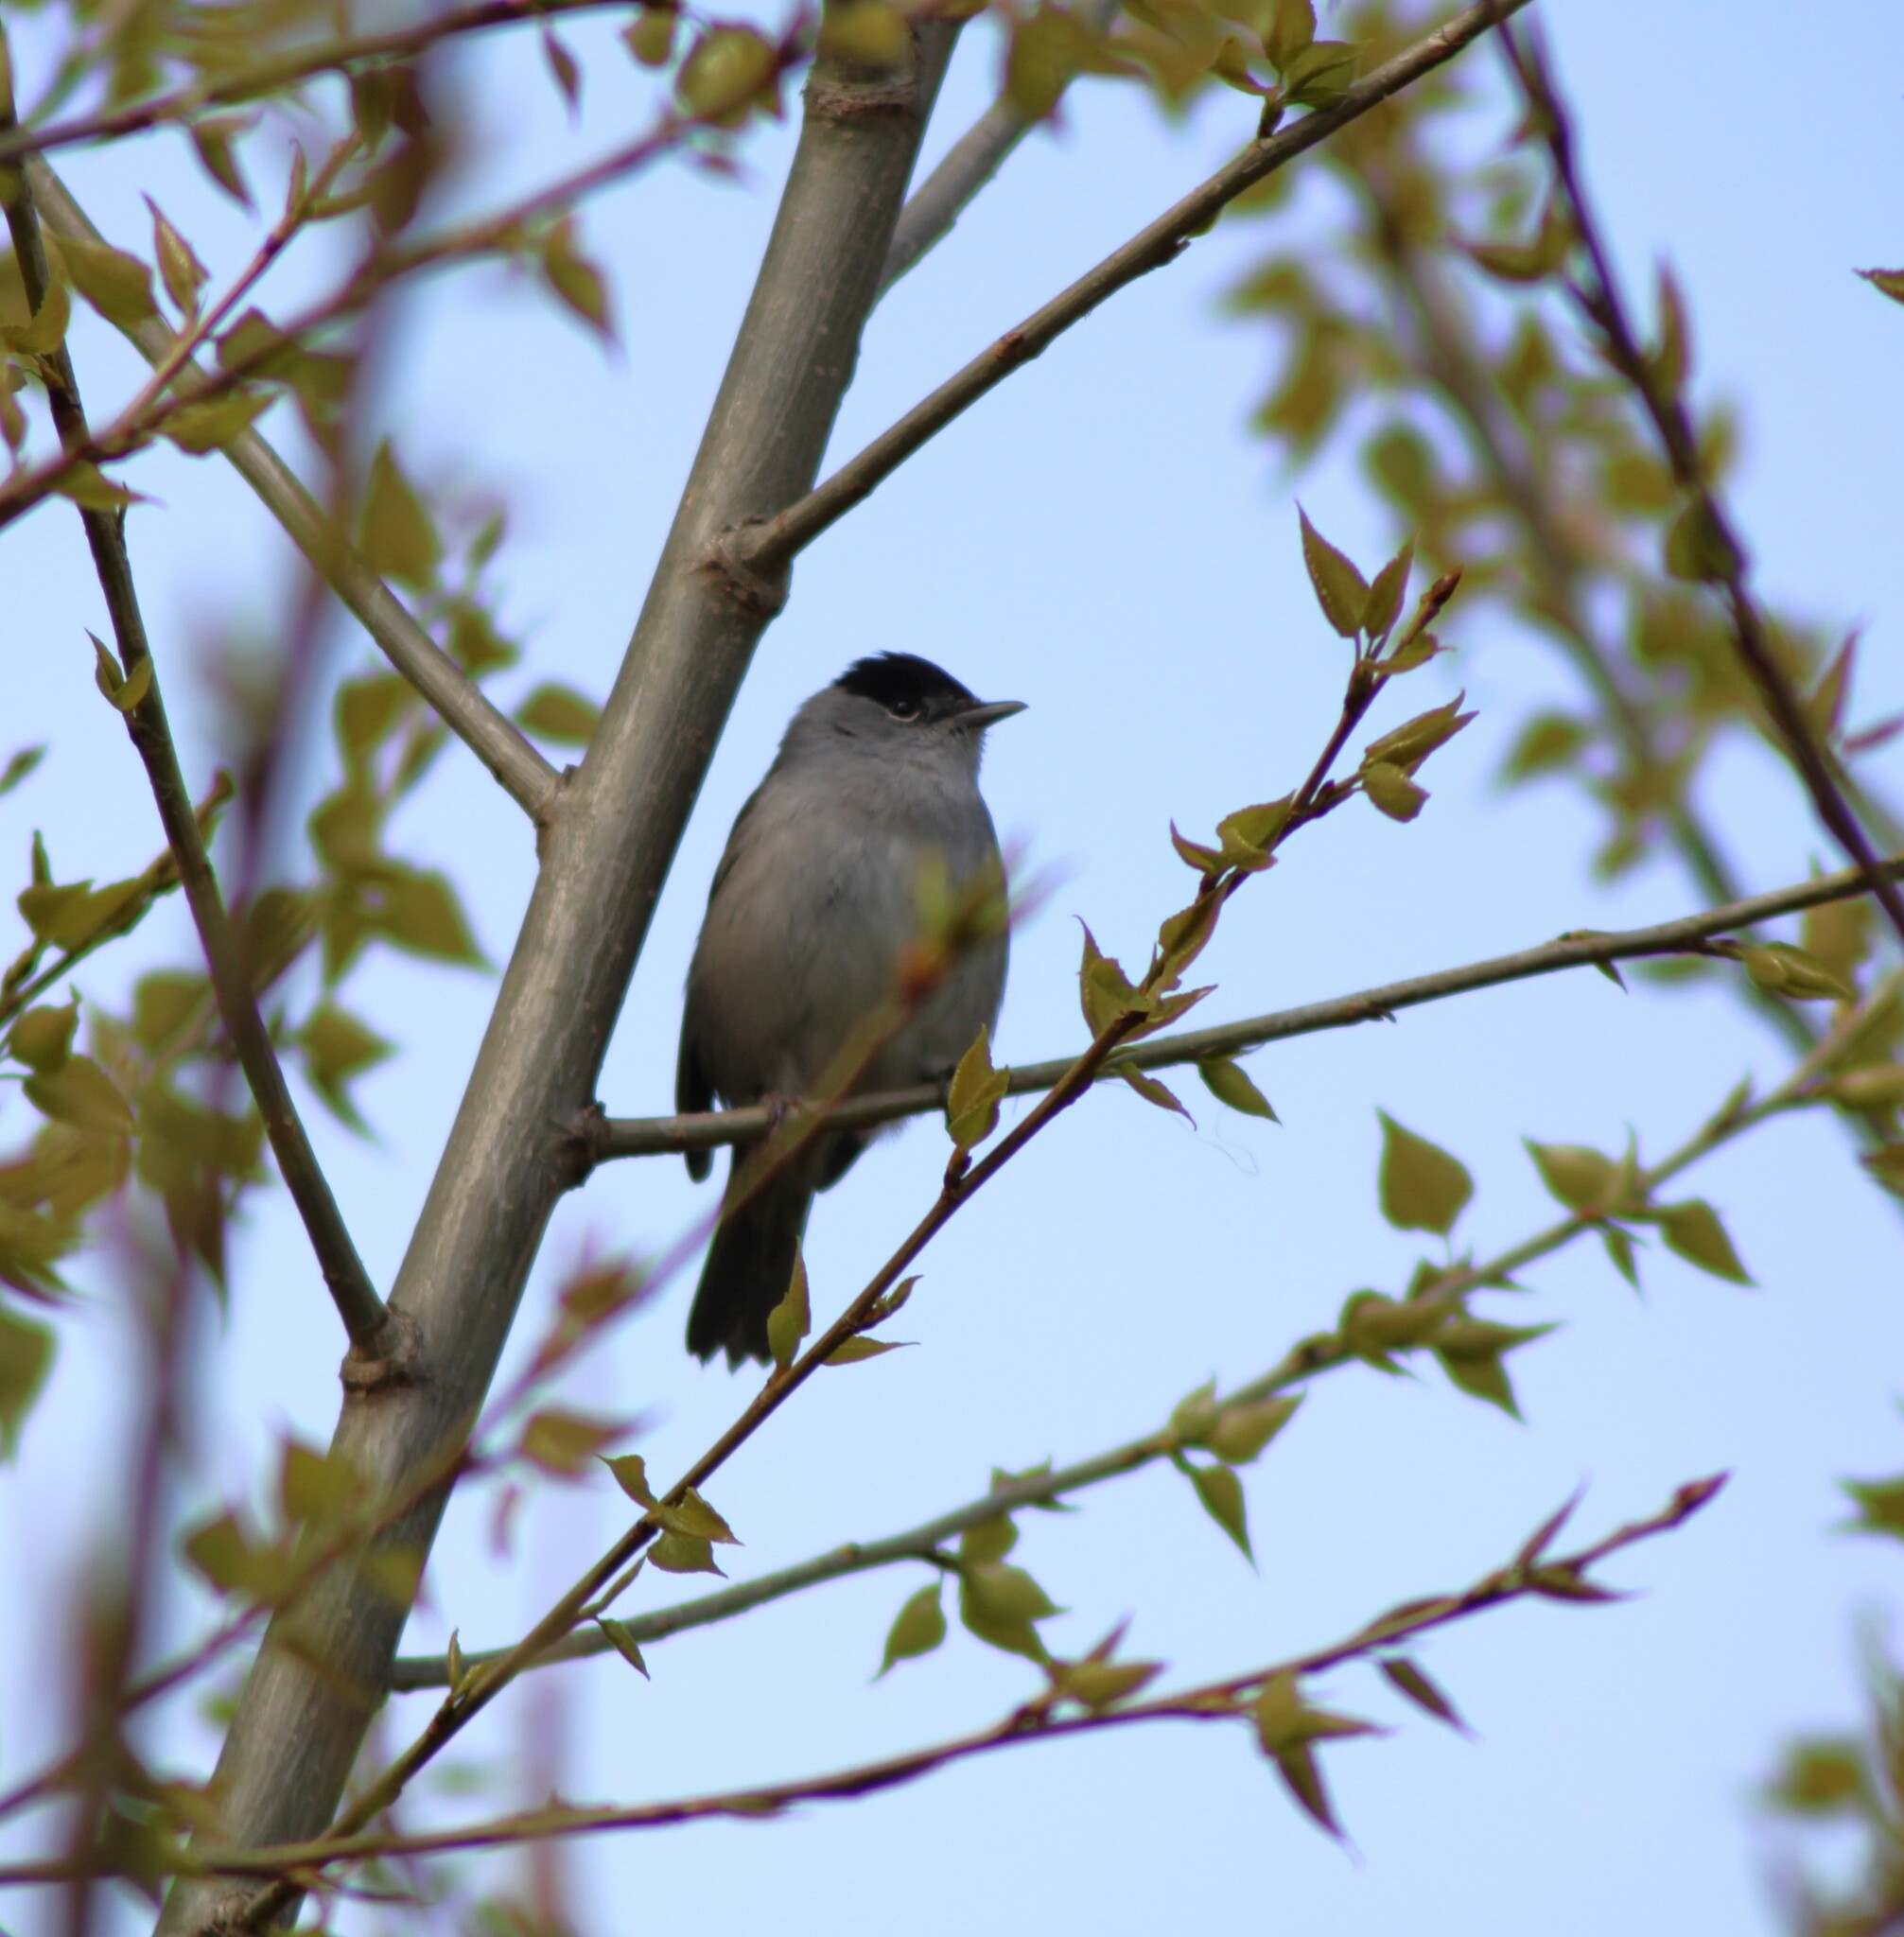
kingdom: Animalia
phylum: Chordata
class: Aves
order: Passeriformes
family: Sylviidae
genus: Sylvia
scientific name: Sylvia atricapilla
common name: Eurasian blackcap
